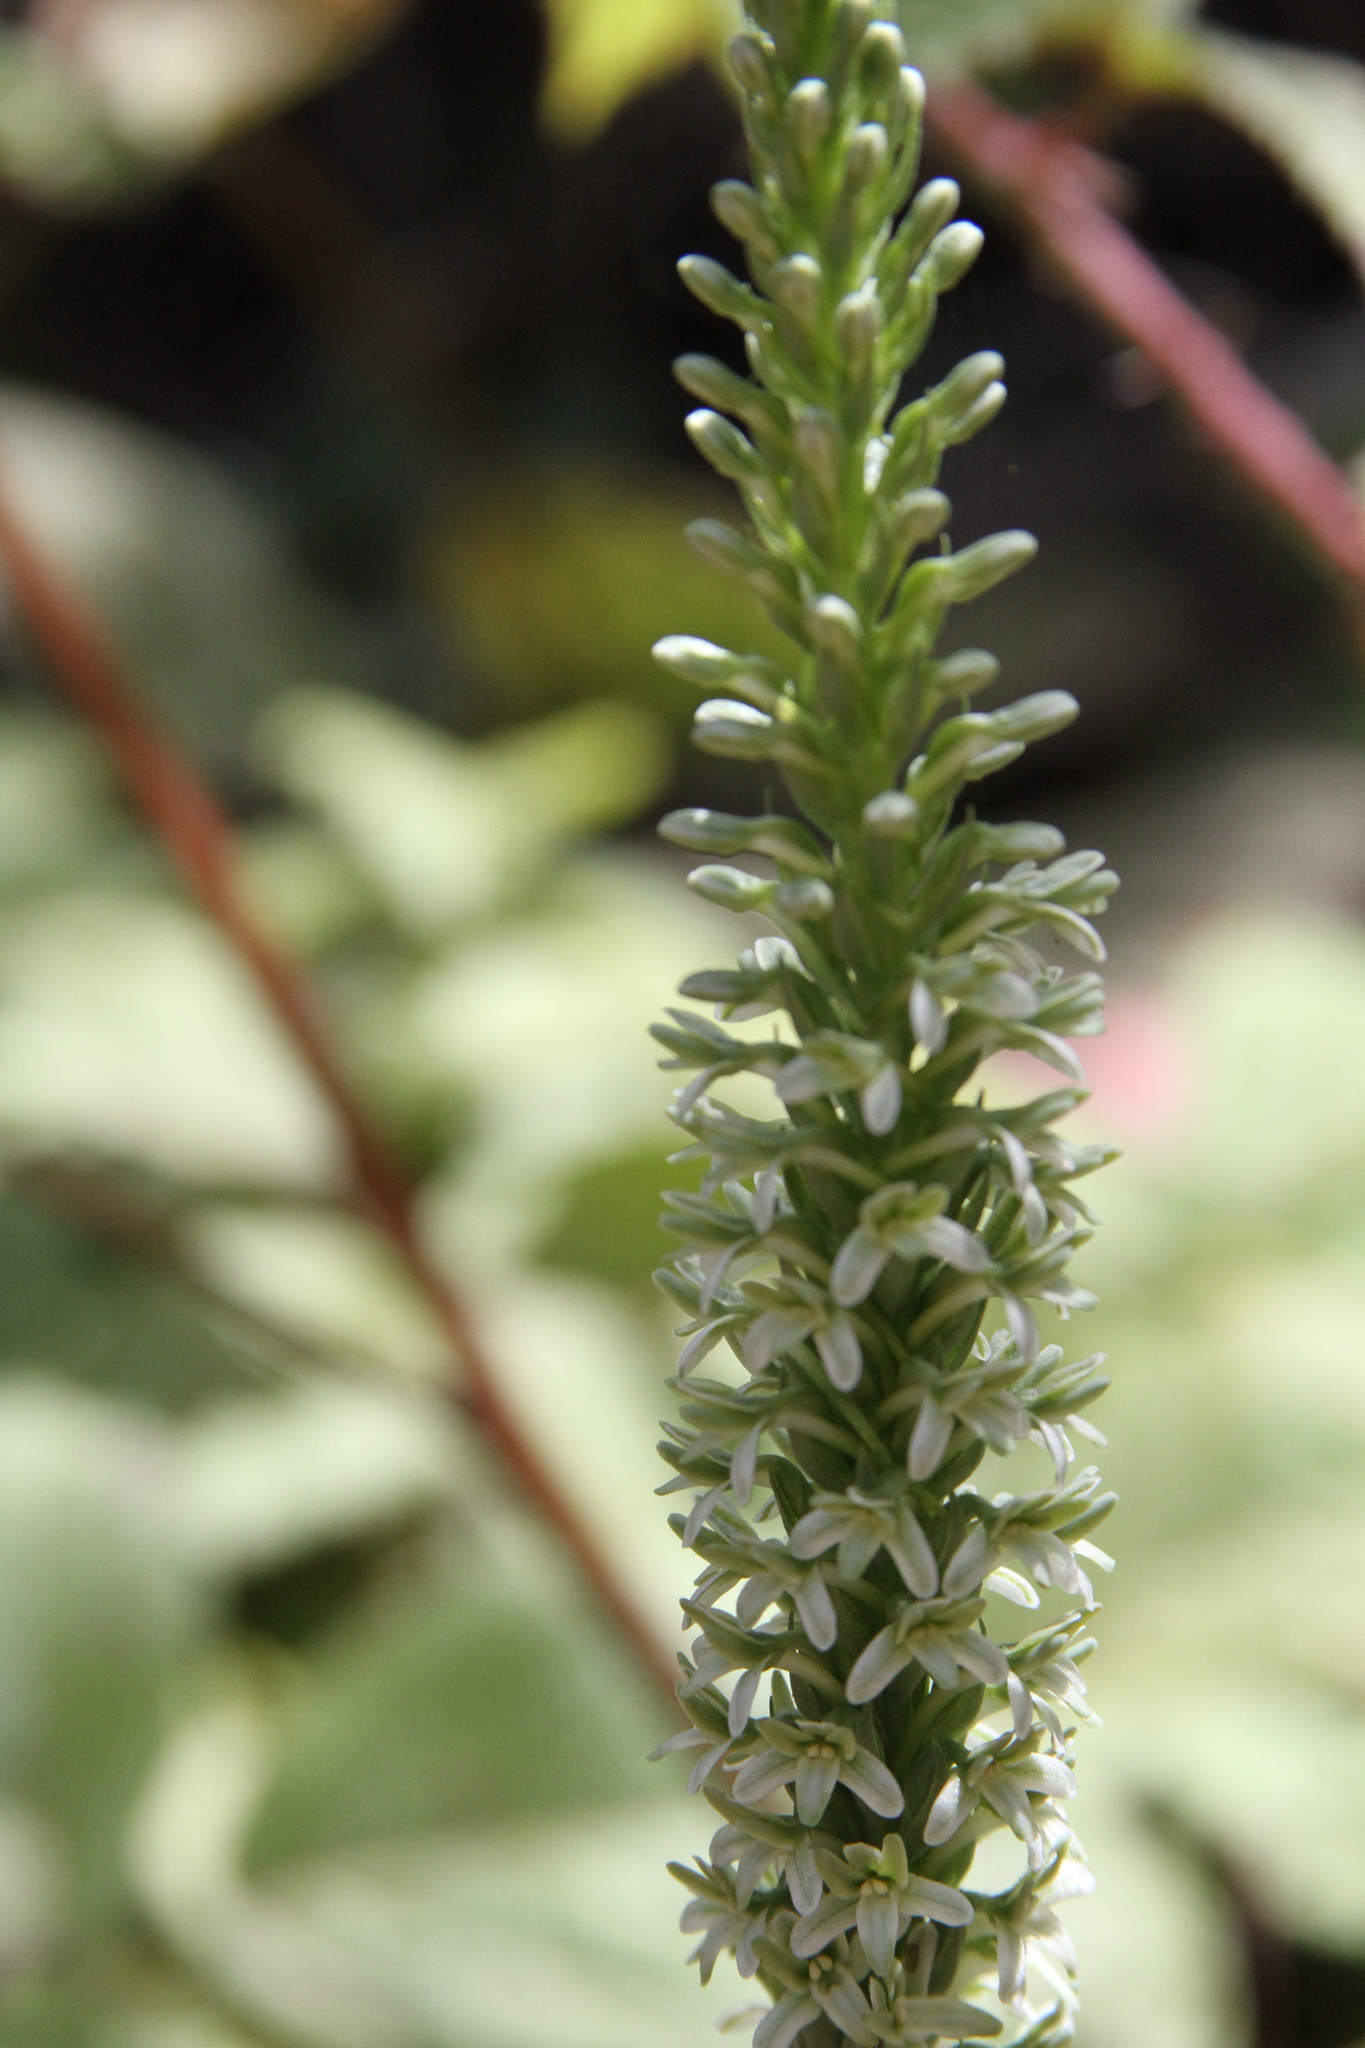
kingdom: Plantae
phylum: Tracheophyta
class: Liliopsida
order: Asparagales
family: Orchidaceae
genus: Platanthera
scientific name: Platanthera elegans
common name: Coast piperia
